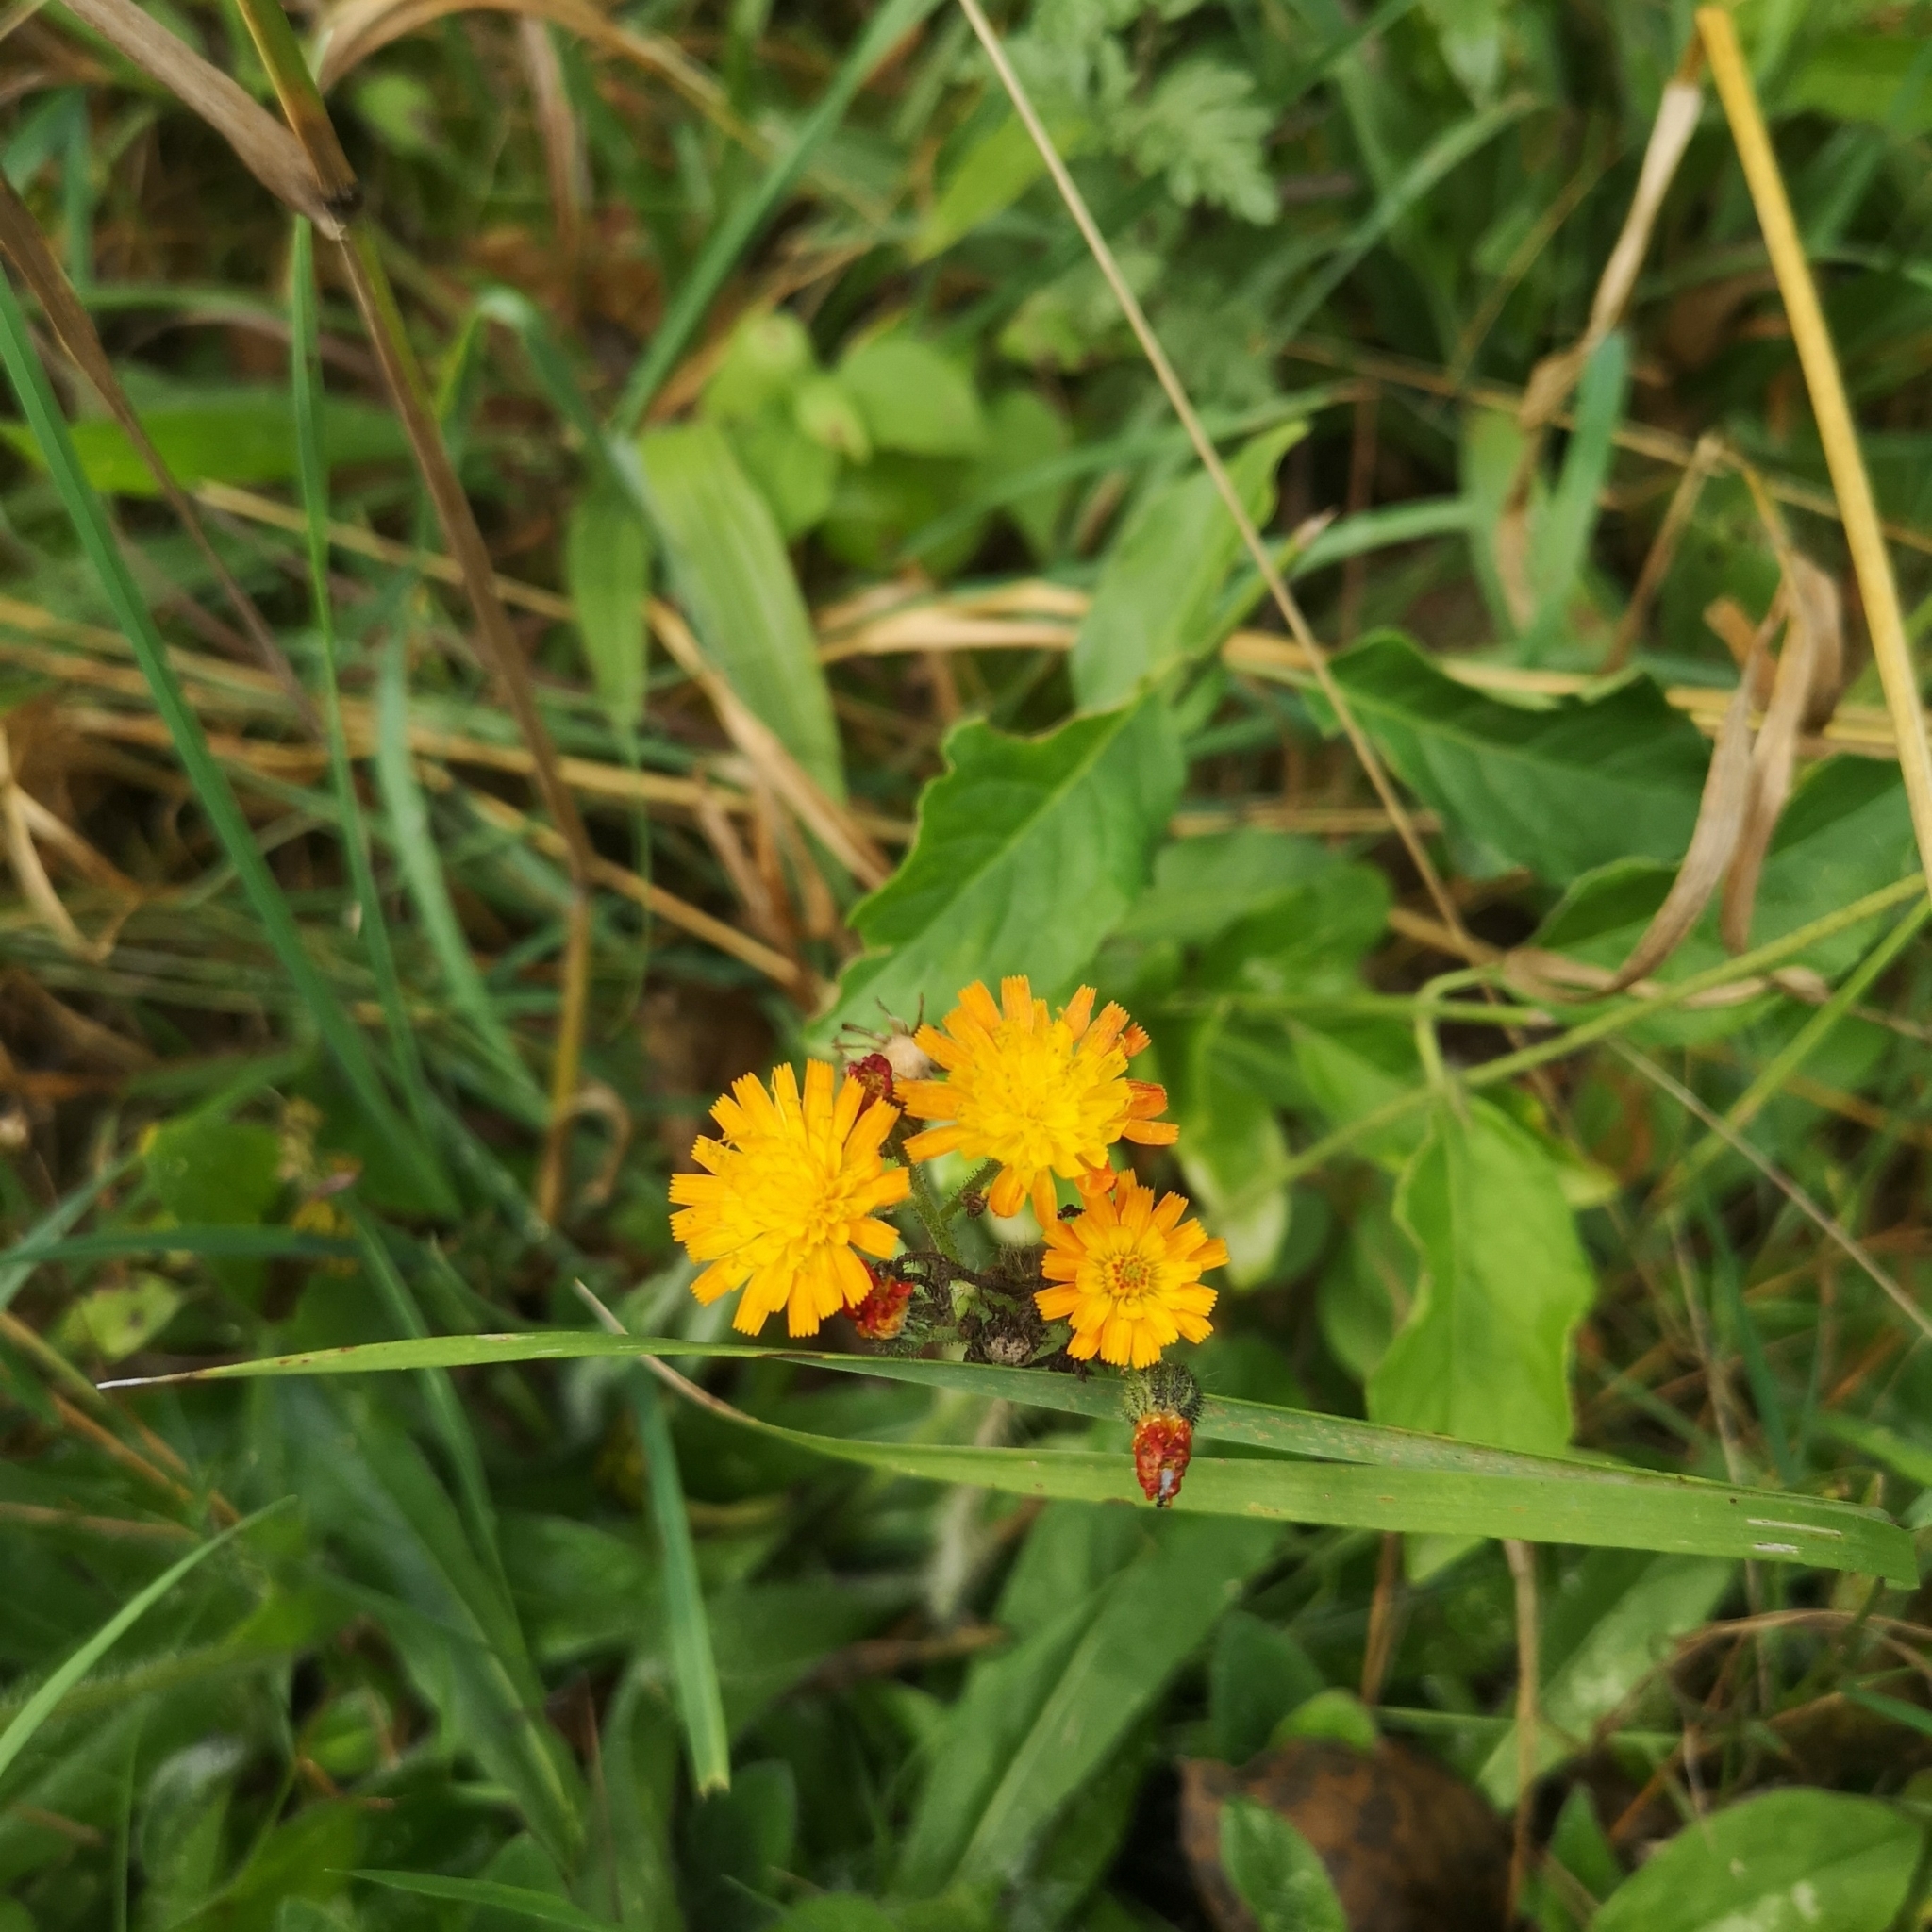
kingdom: Plantae
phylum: Tracheophyta
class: Magnoliopsida
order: Asterales
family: Asteraceae
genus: Pilosella
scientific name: Pilosella aurantiaca
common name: Fox-and-cubs
